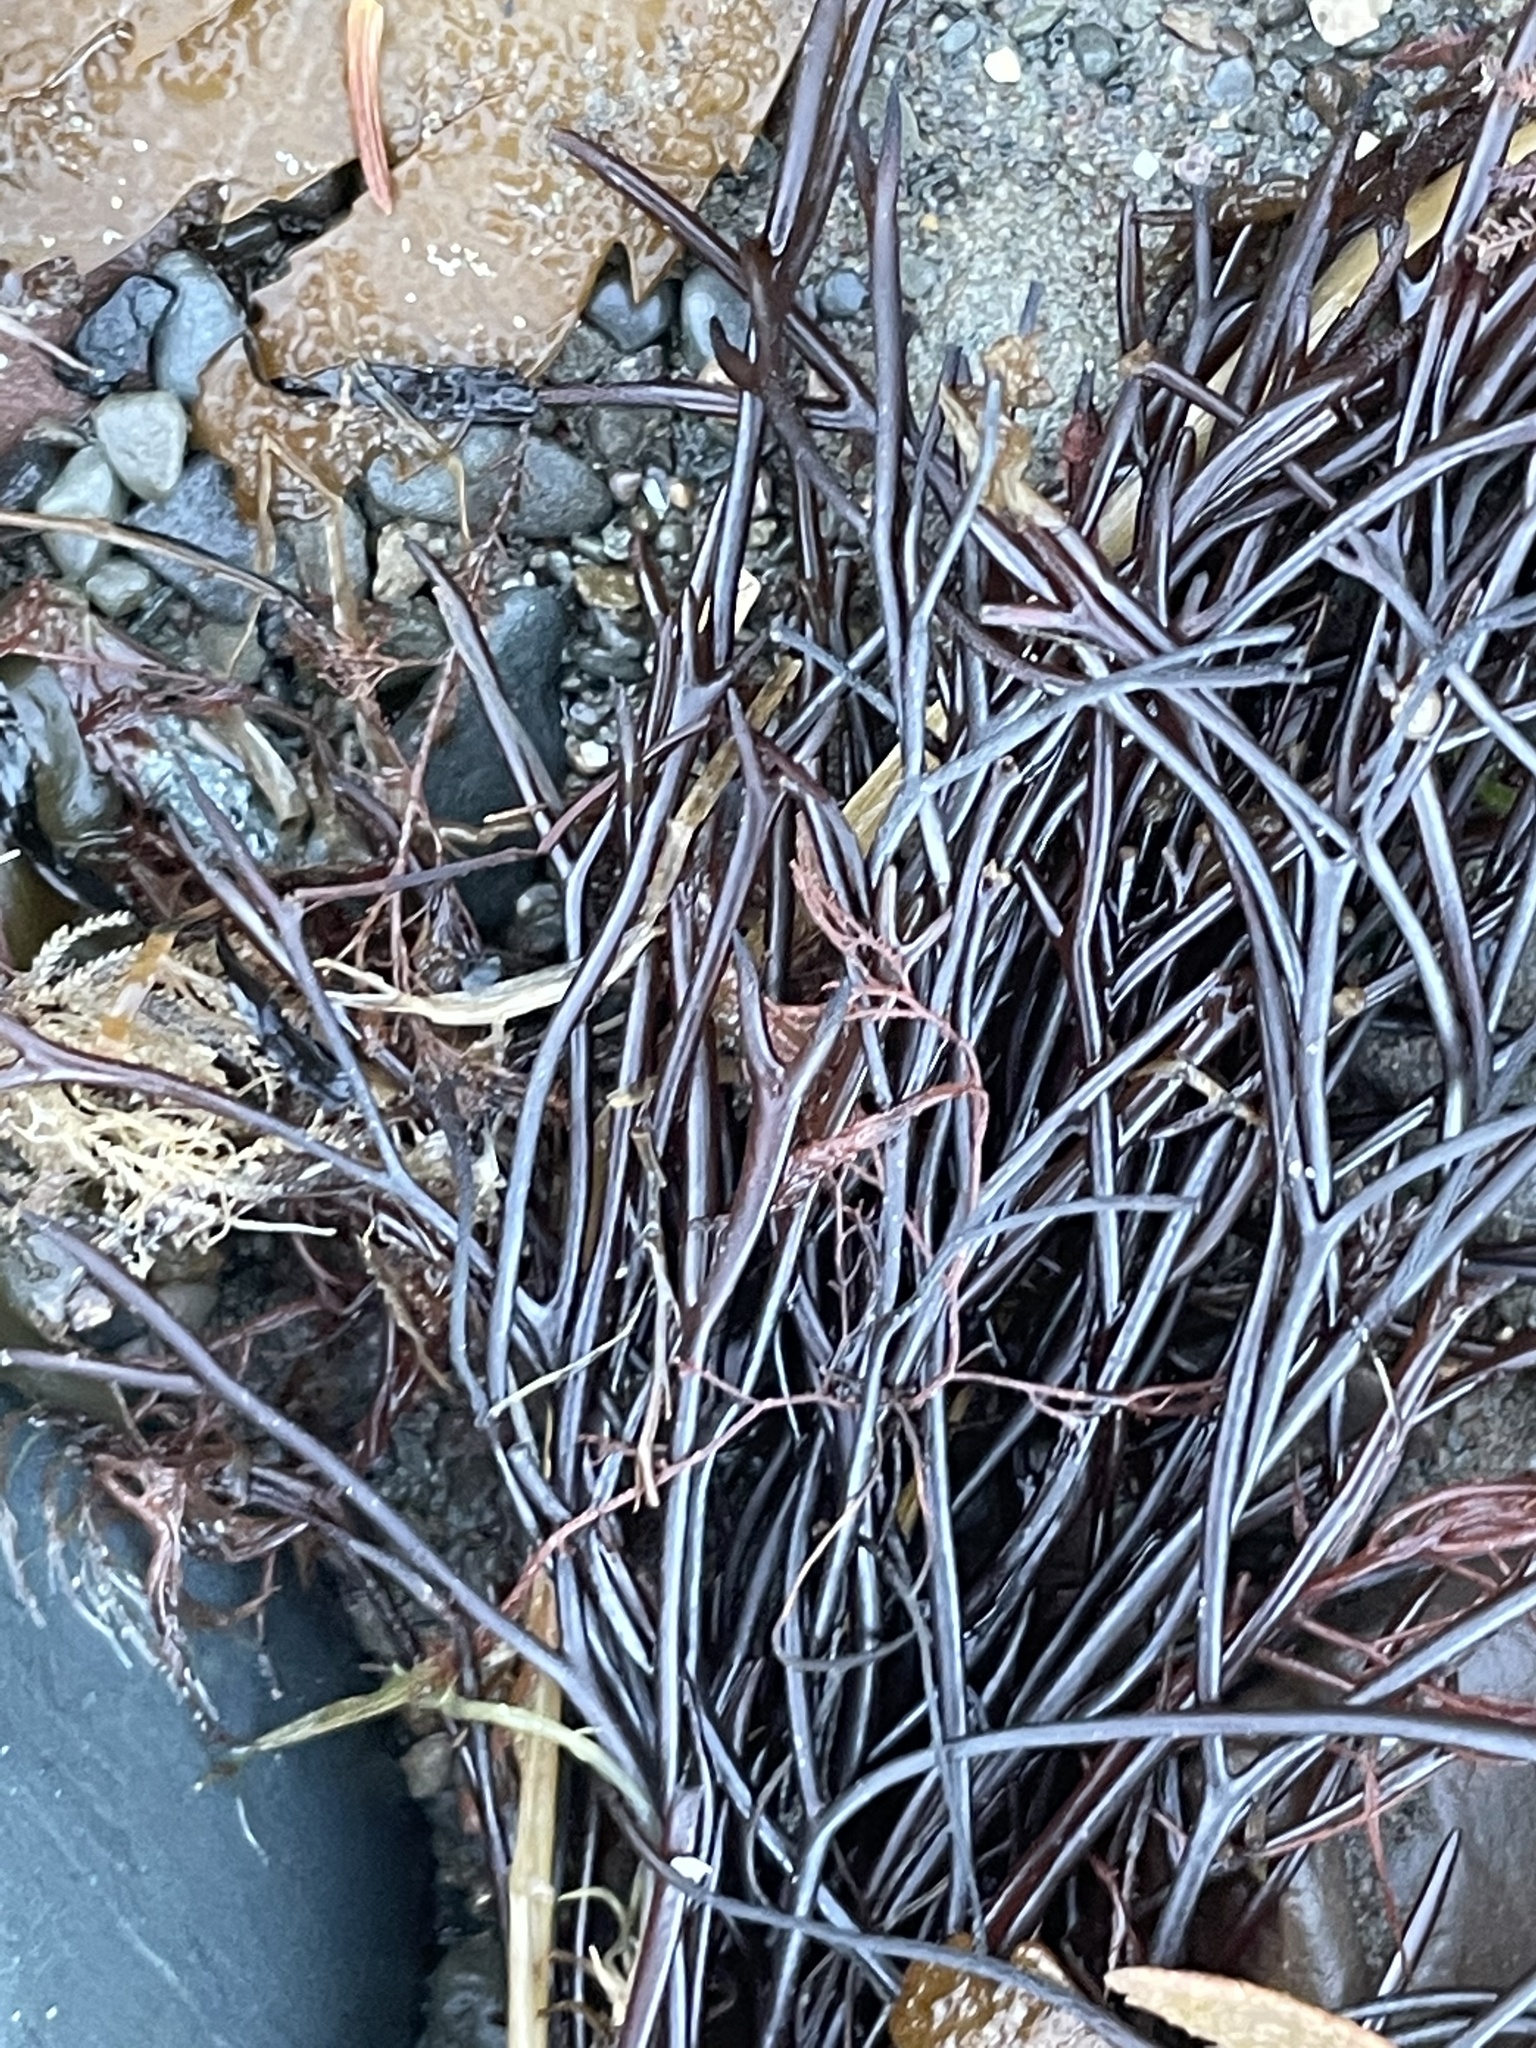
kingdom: Plantae
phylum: Rhodophyta
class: Florideophyceae
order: Gigartinales
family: Solieriaceae
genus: Sarcodiotheca
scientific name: Sarcodiotheca gaudichaudii
